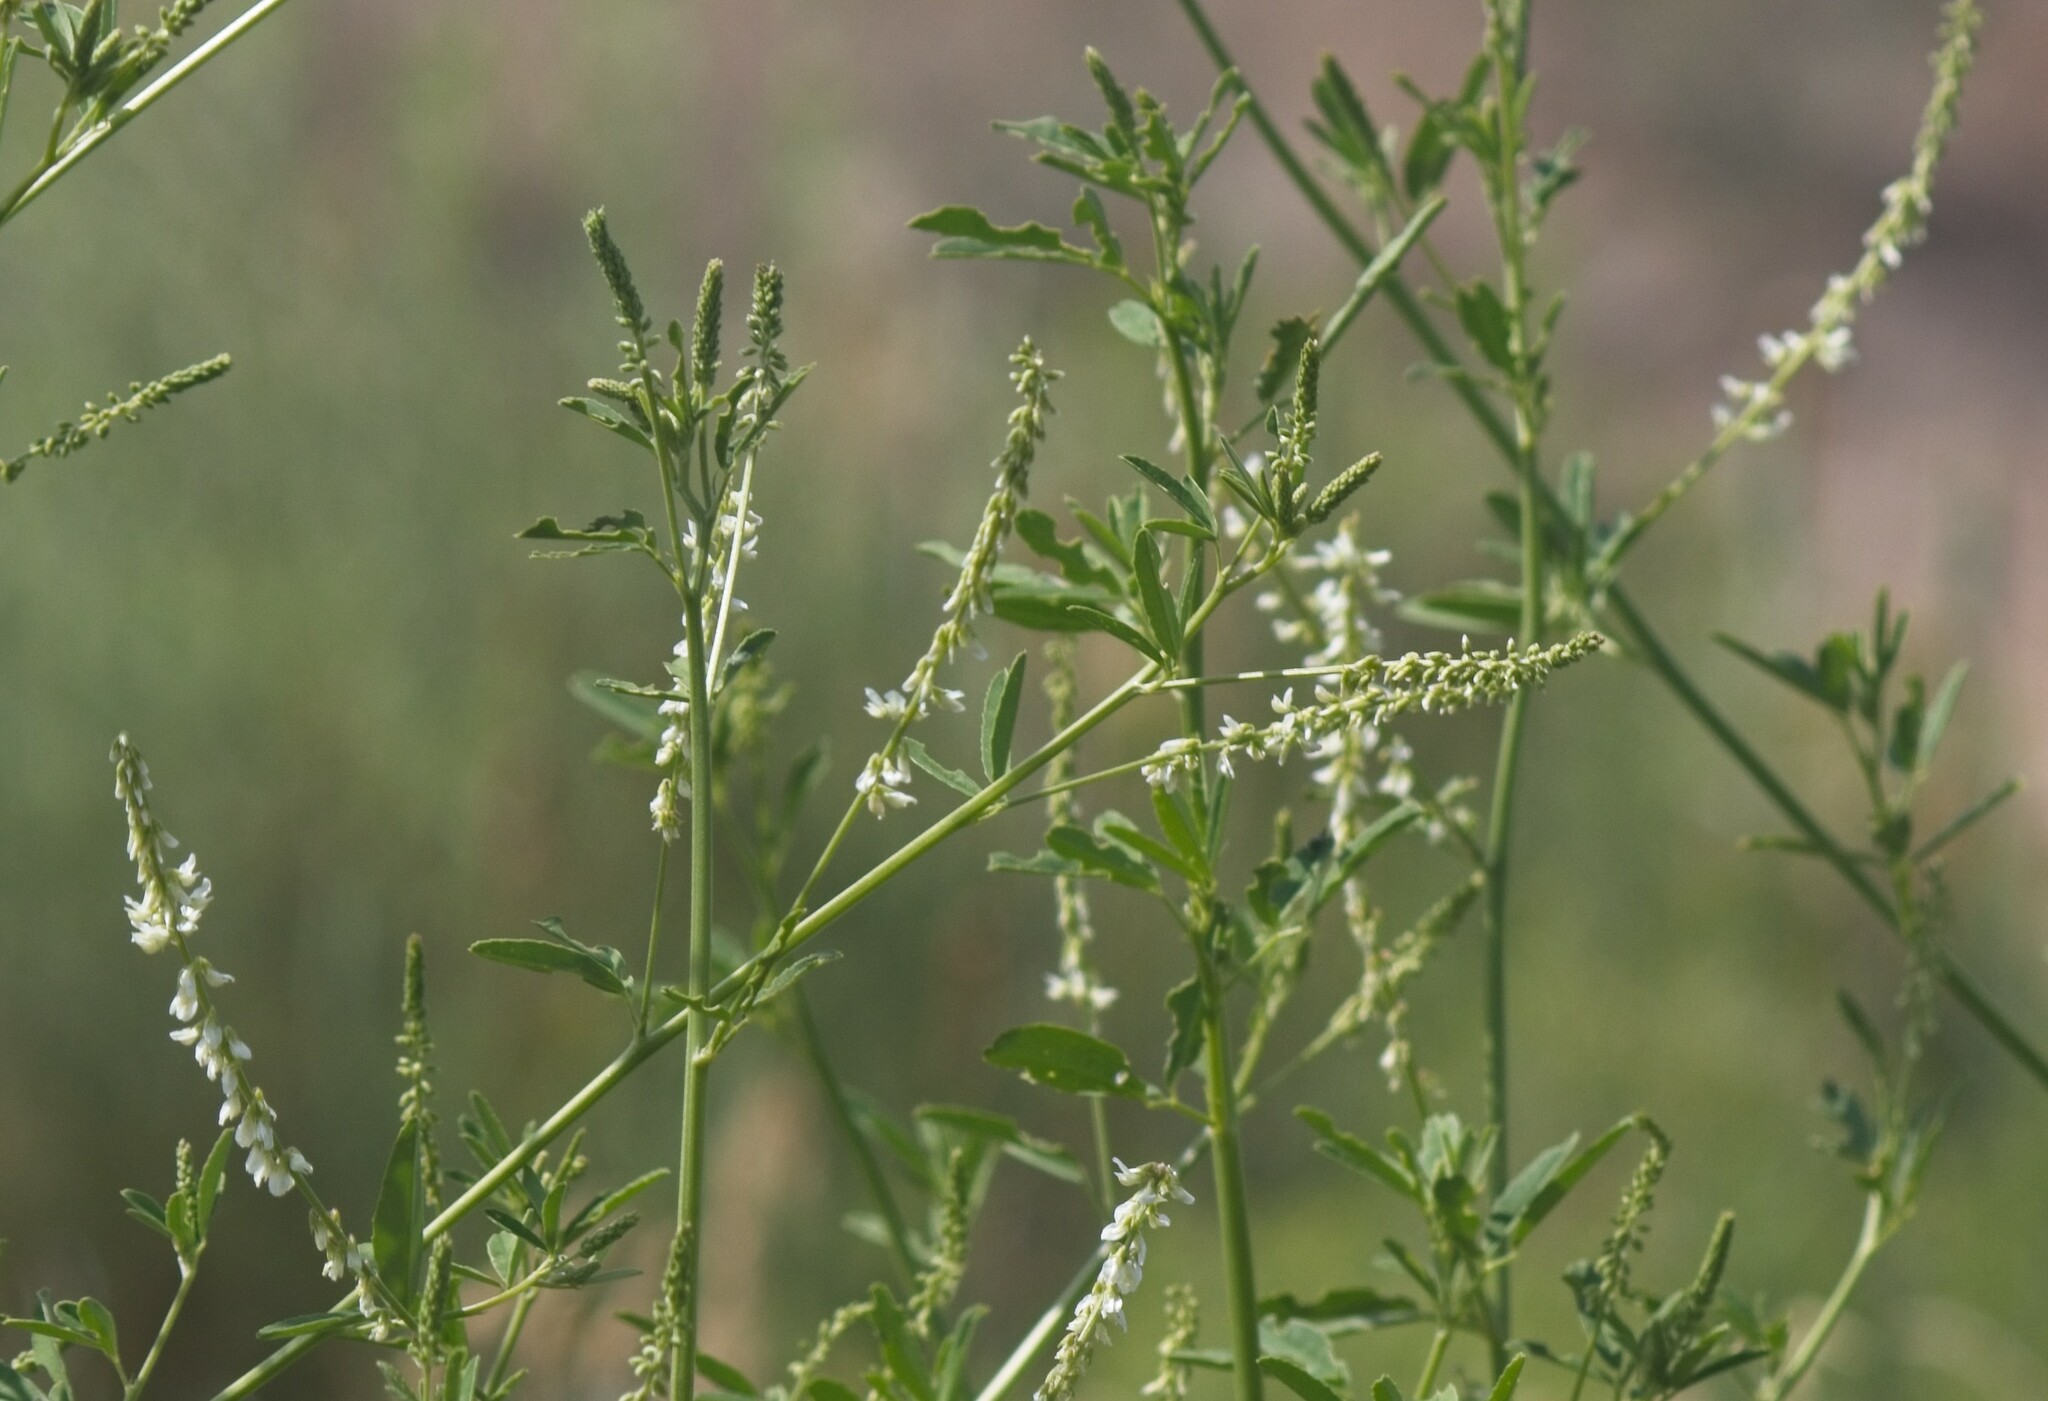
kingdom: Plantae
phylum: Tracheophyta
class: Magnoliopsida
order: Fabales
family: Fabaceae
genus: Melilotus
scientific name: Melilotus albus
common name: White melilot
